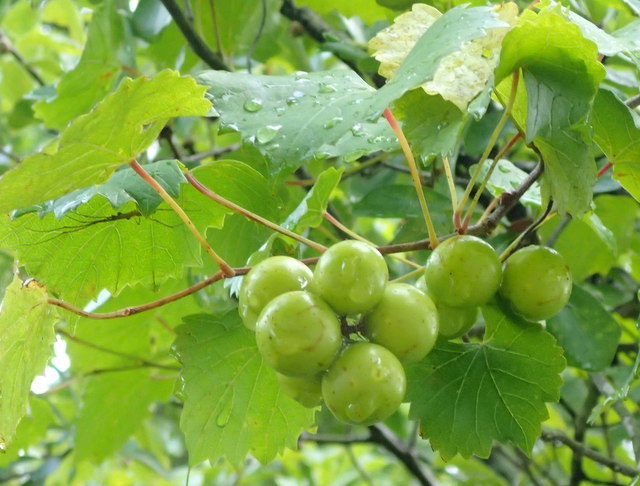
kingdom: Plantae
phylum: Tracheophyta
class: Magnoliopsida
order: Vitales
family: Vitaceae
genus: Vitis
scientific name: Vitis rotundifolia
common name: Muscadine grape
